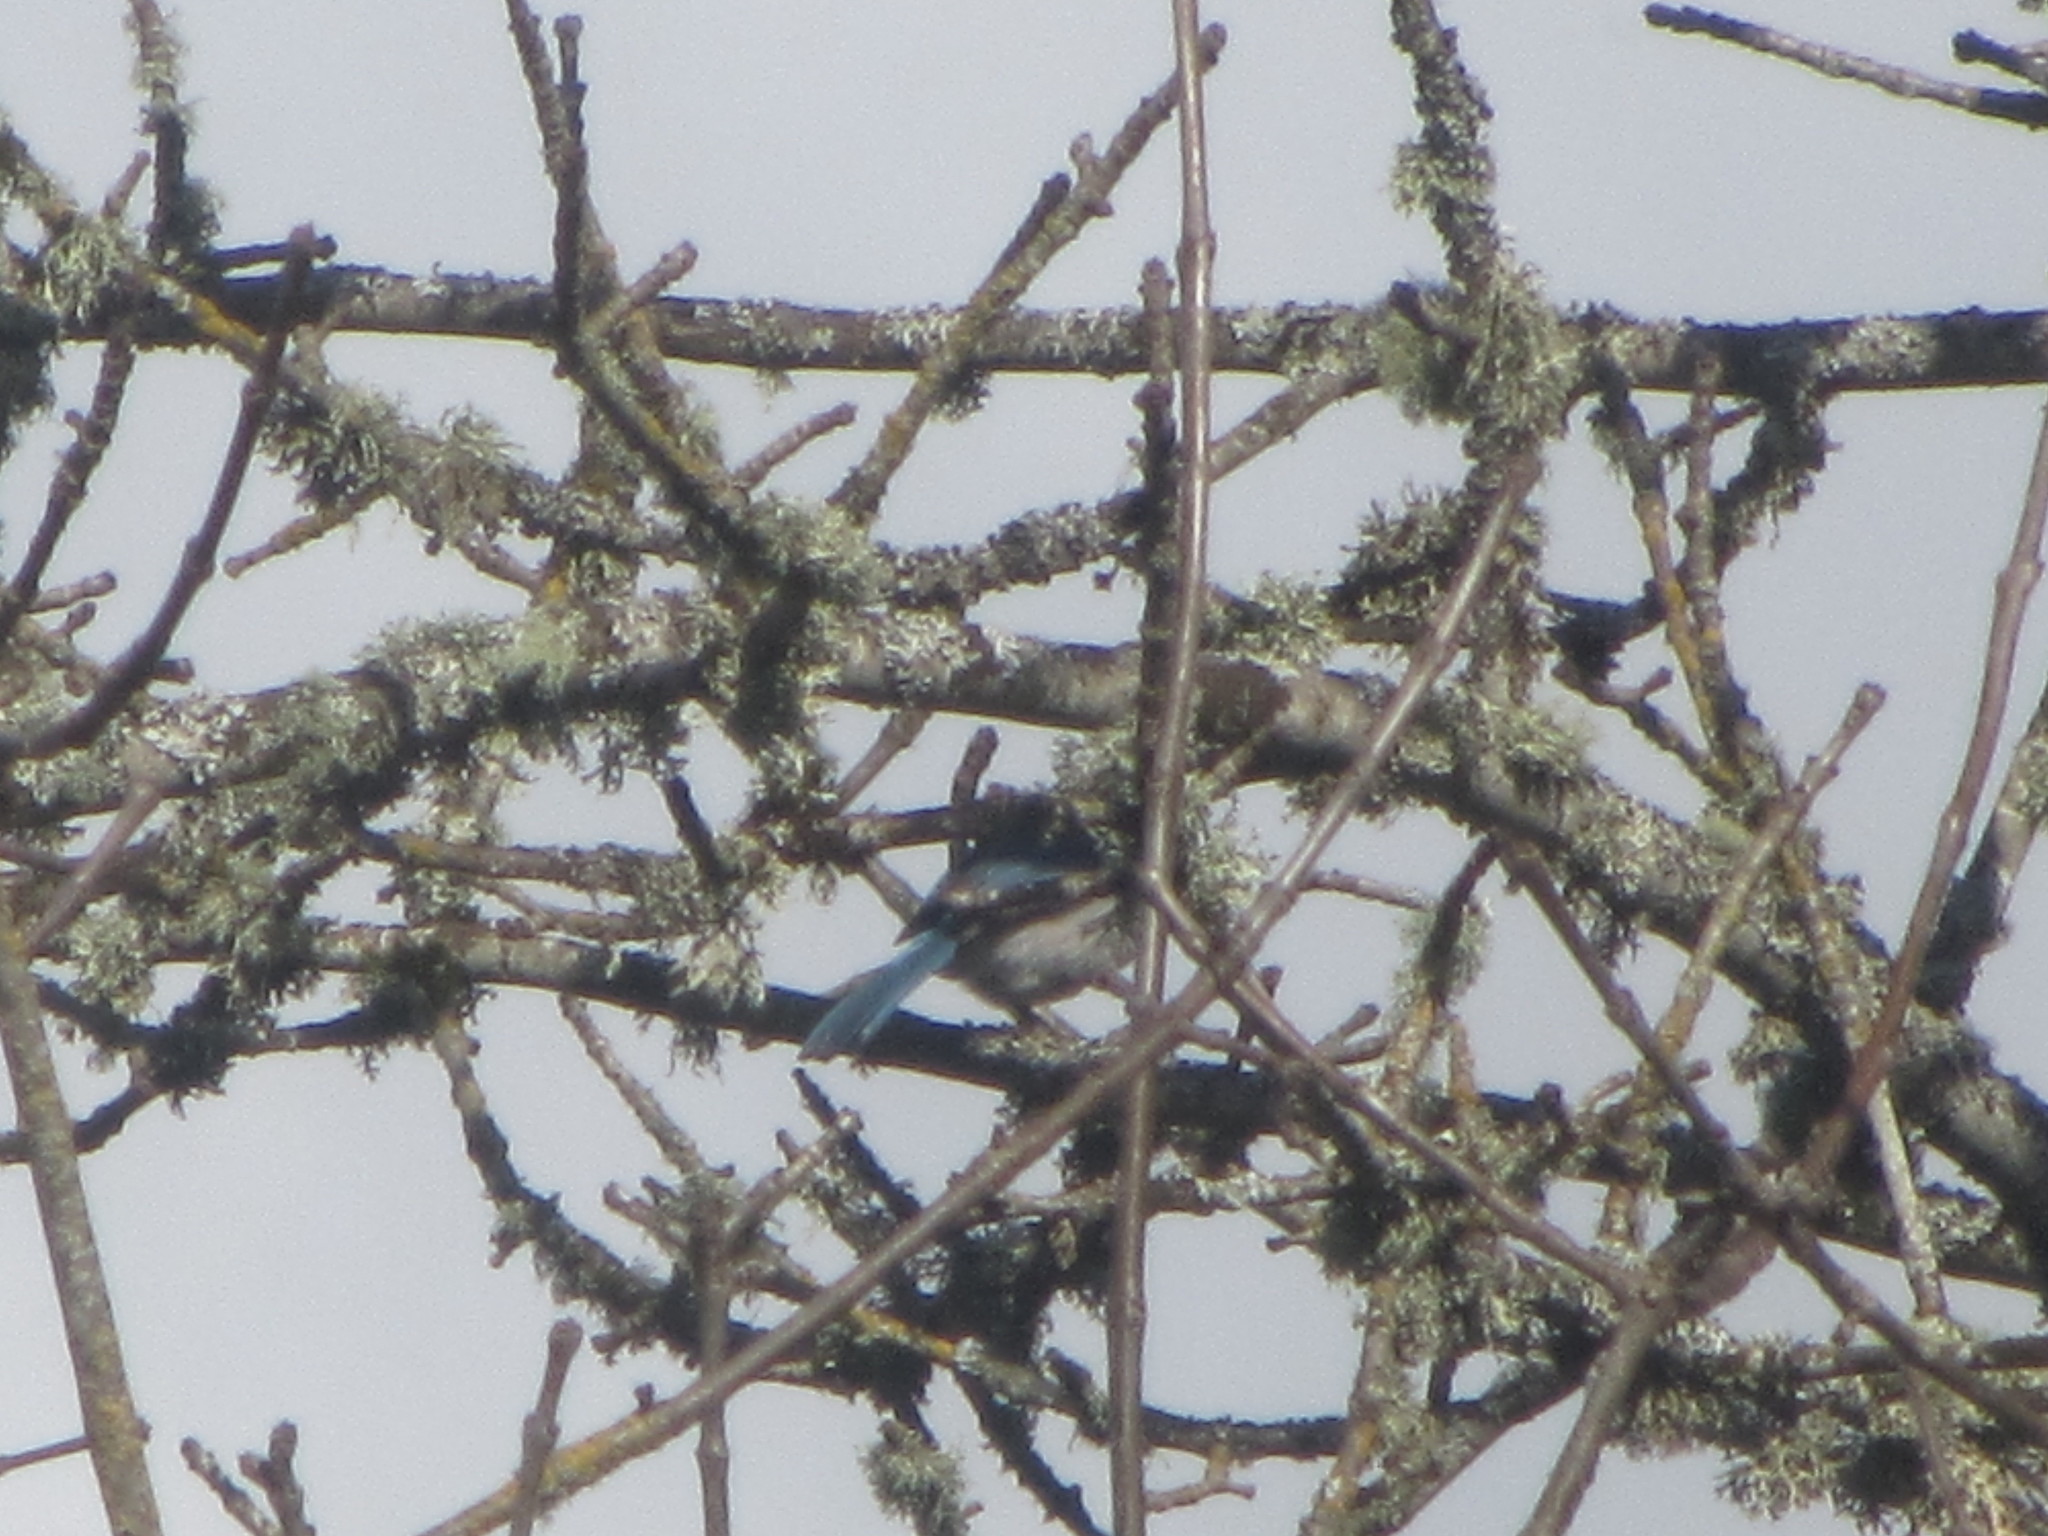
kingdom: Animalia
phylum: Chordata
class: Aves
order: Passeriformes
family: Corvidae
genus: Aphelocoma
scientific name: Aphelocoma californica
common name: California scrub-jay
